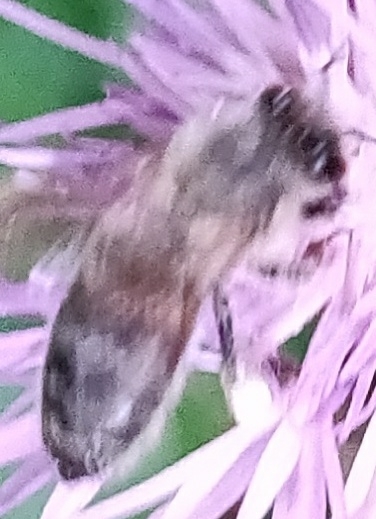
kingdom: Animalia
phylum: Arthropoda
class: Insecta
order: Hymenoptera
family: Apidae
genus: Apis
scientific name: Apis mellifera
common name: Honey bee
